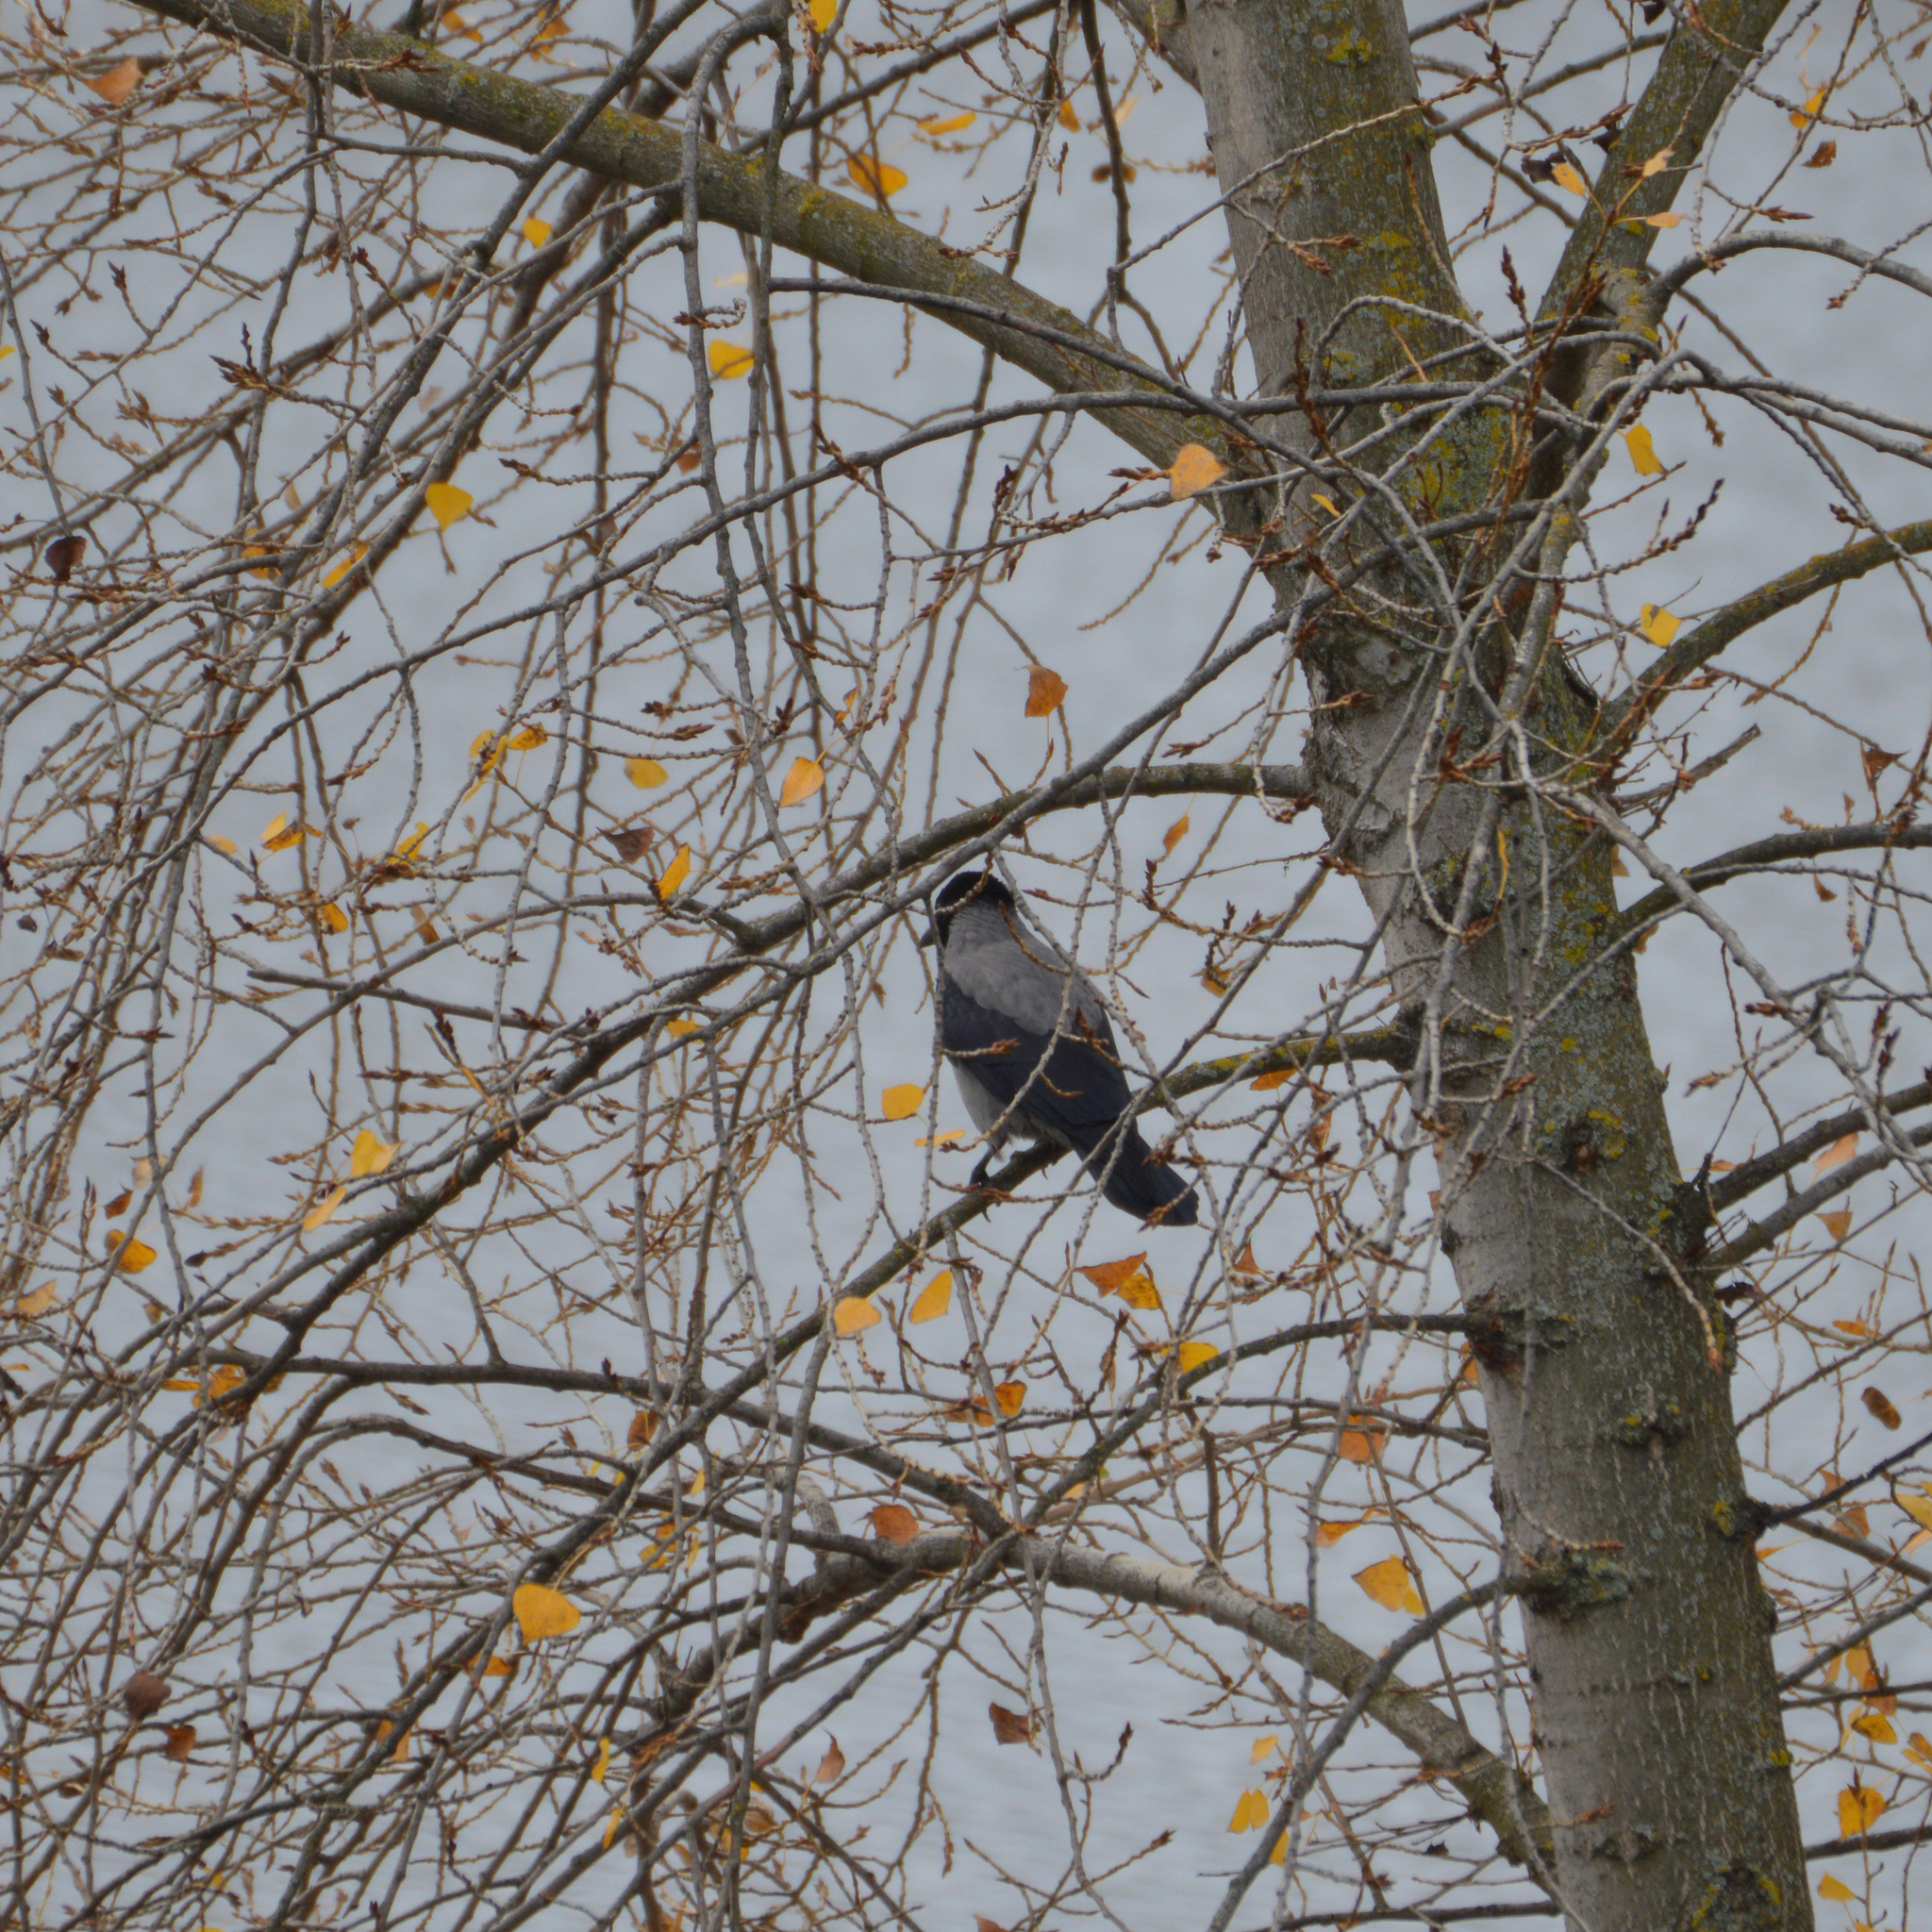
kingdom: Animalia
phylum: Chordata
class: Aves
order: Passeriformes
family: Corvidae
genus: Corvus
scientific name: Corvus cornix
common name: Hooded crow
